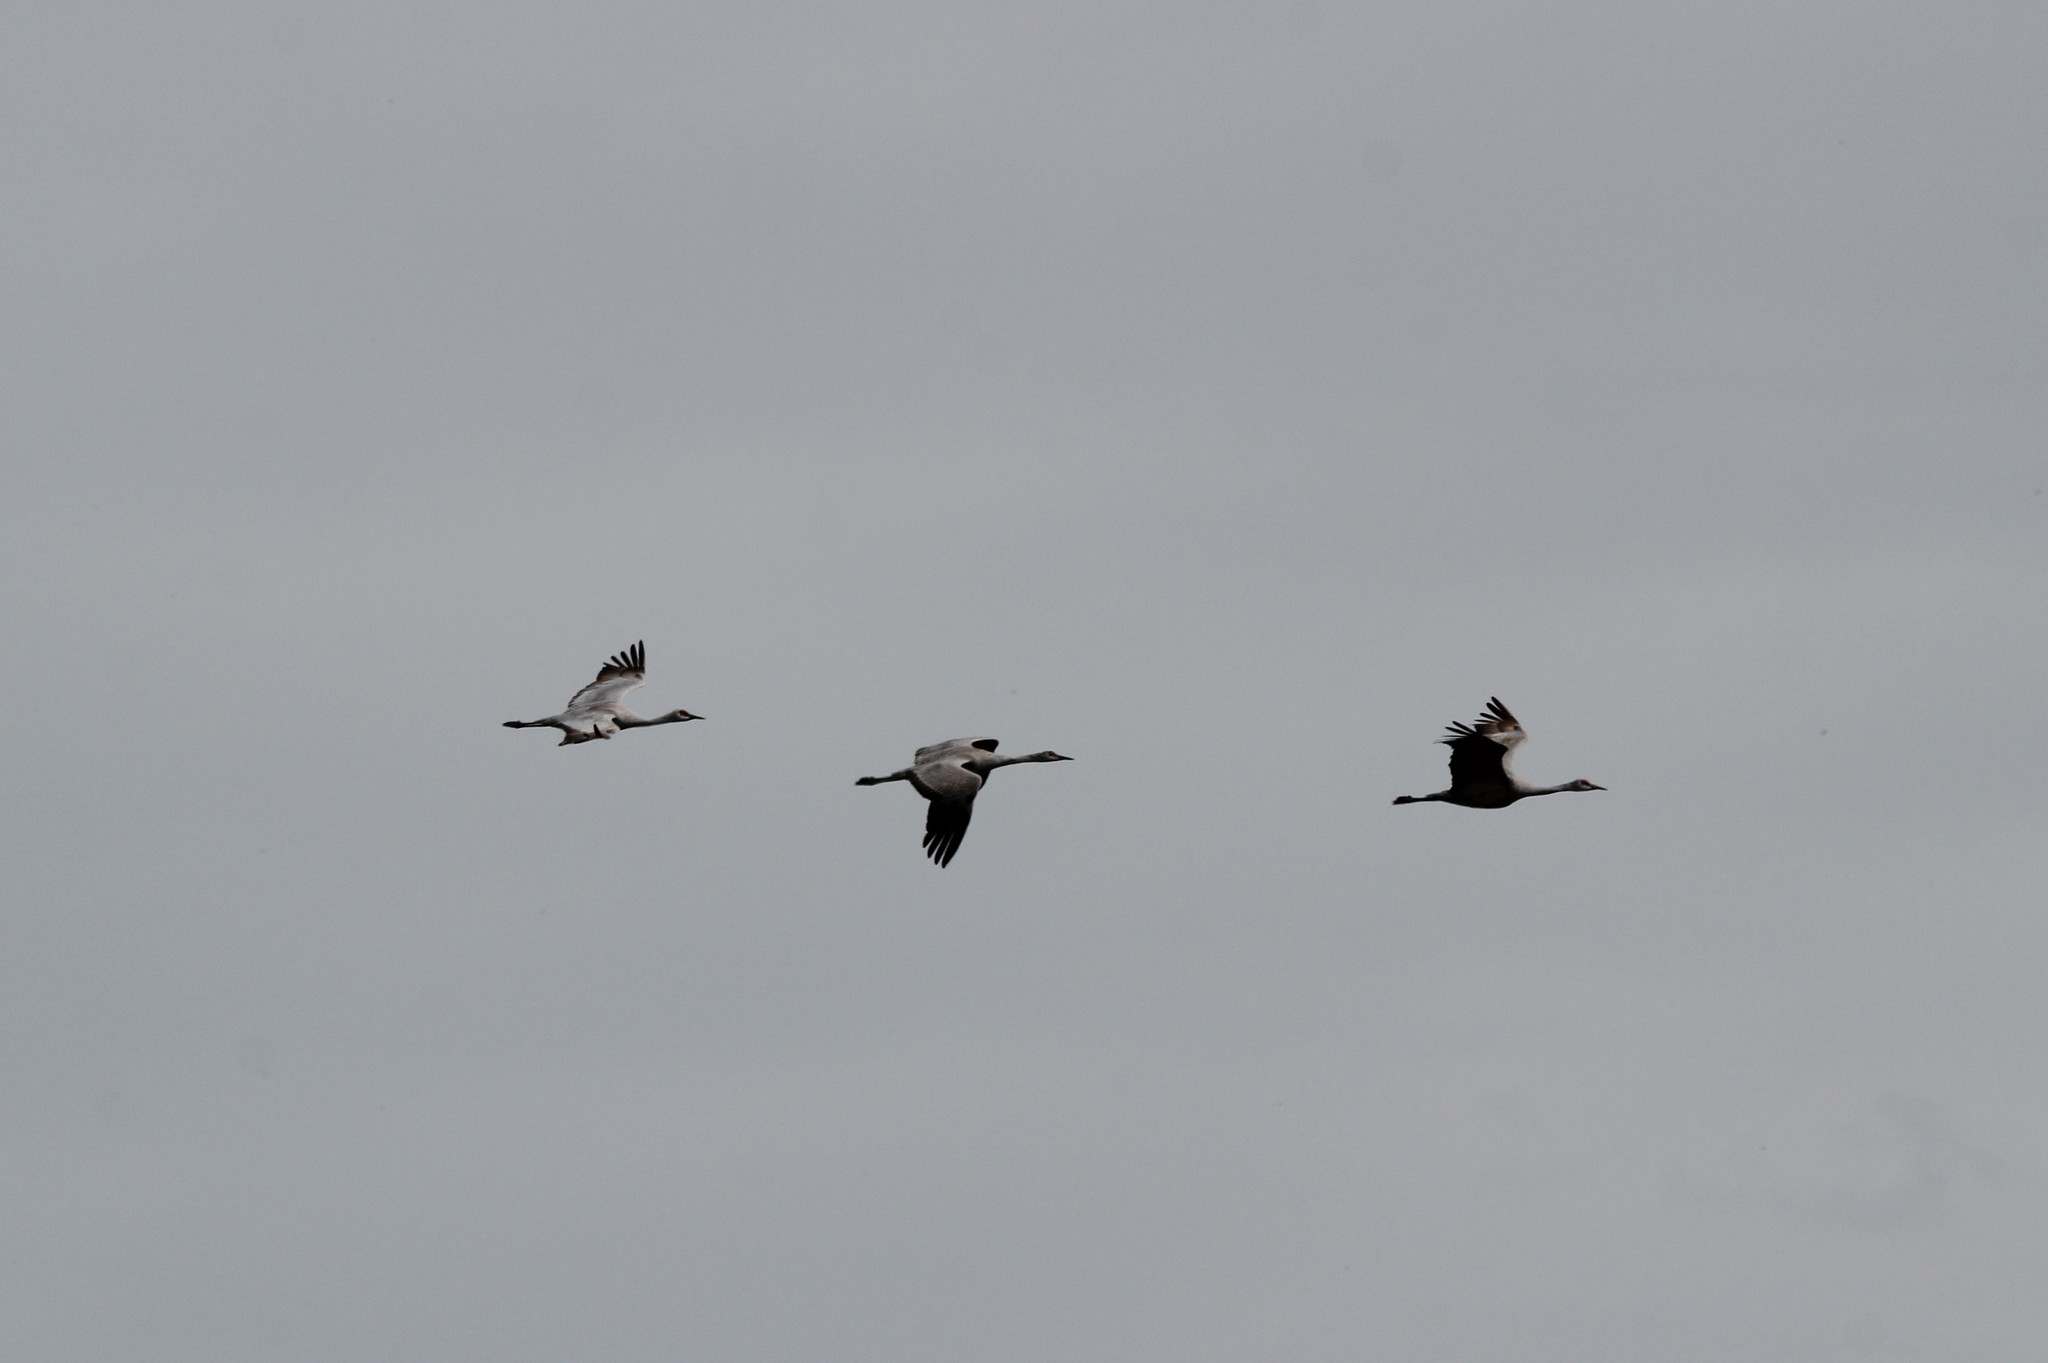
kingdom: Animalia
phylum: Chordata
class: Aves
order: Gruiformes
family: Gruidae
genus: Grus
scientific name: Grus canadensis
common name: Sandhill crane
